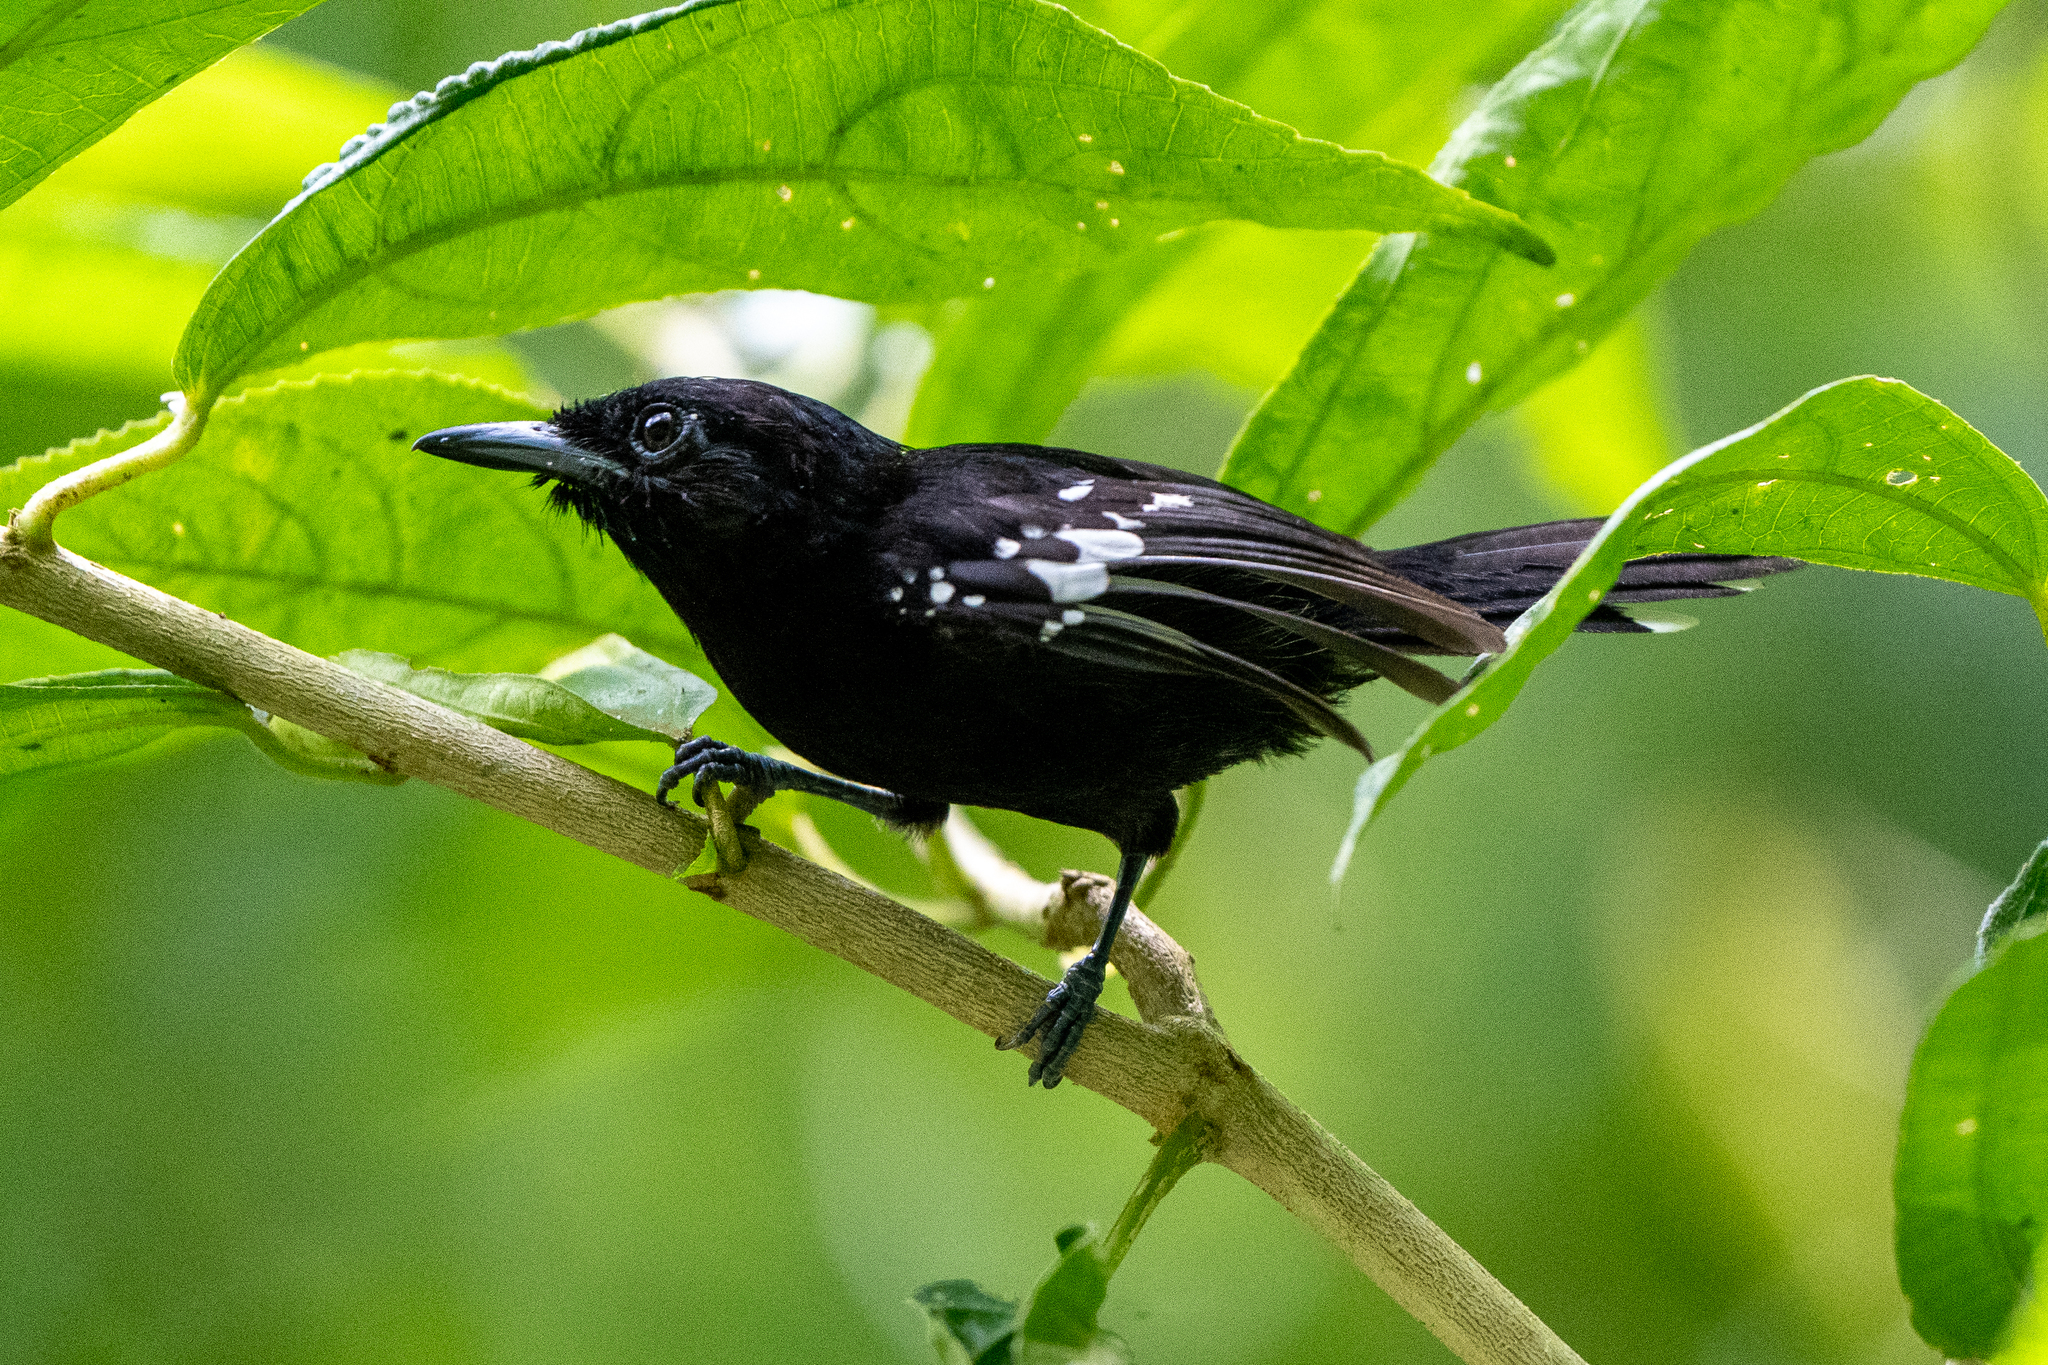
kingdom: Animalia
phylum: Chordata
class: Aves
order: Passeriformes
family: Thamnophilidae
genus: Microrhopias
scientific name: Microrhopias quixensis
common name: Dot-winged antwren
